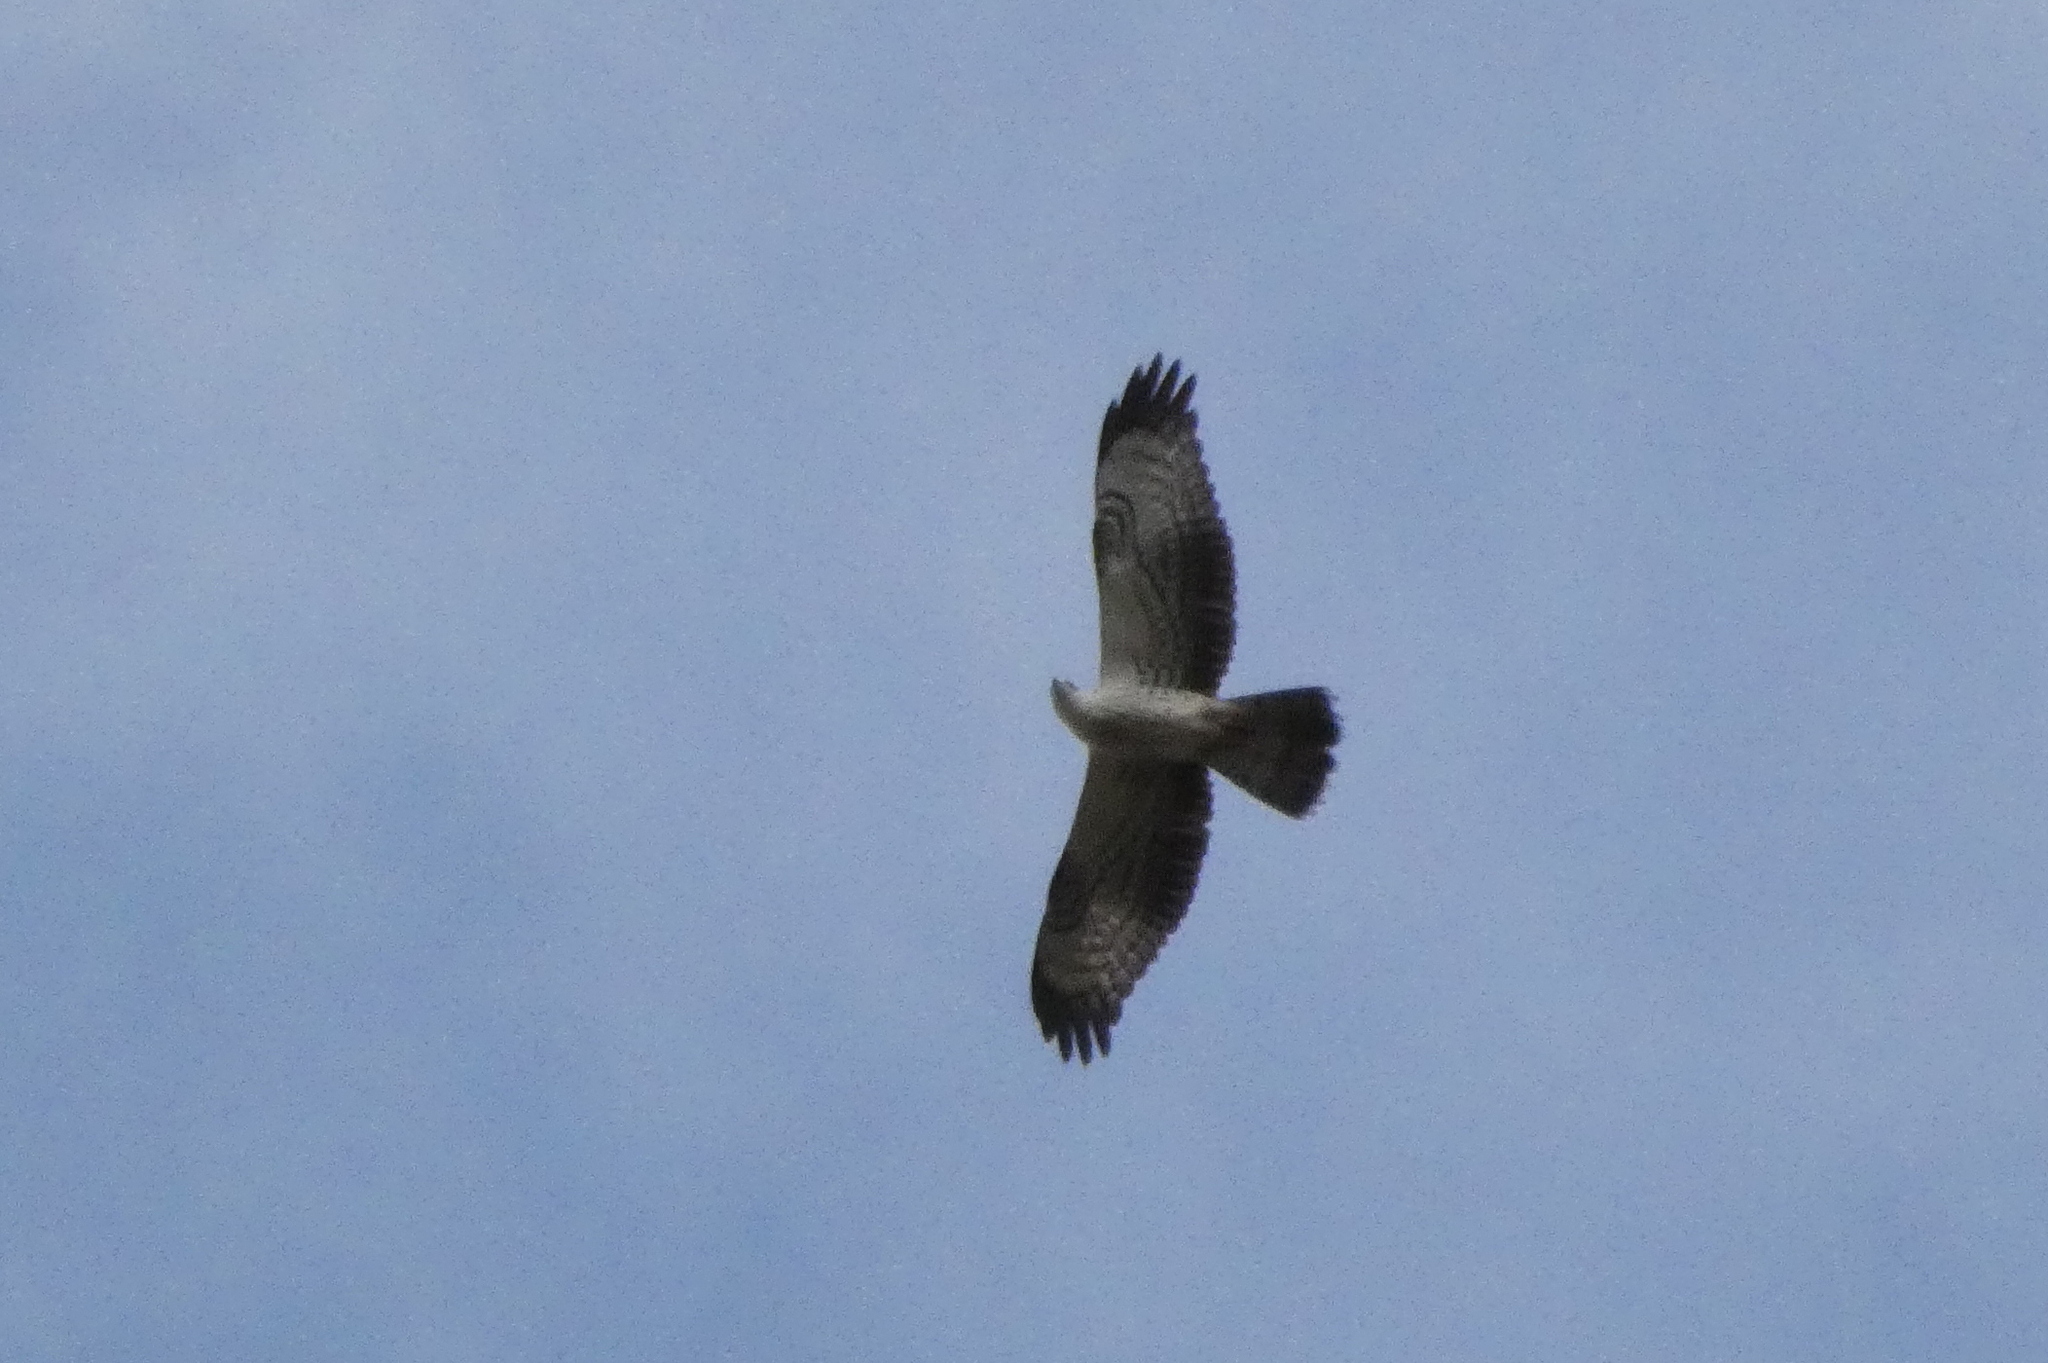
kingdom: Animalia
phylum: Chordata
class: Aves
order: Accipitriformes
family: Accipitridae
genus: Pernis
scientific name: Pernis apivorus
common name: European honey buzzard
